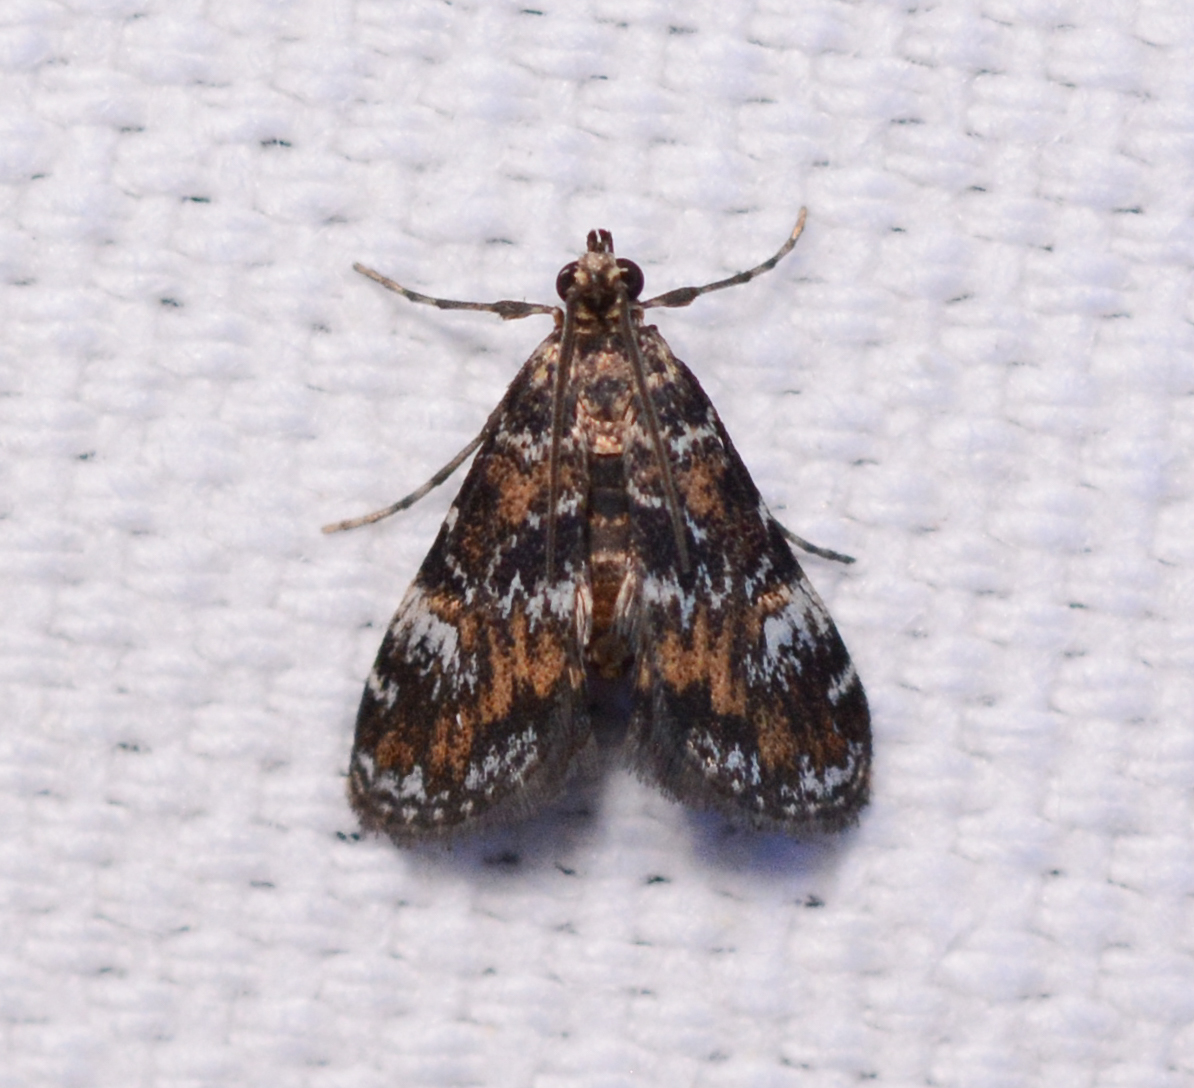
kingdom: Animalia
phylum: Arthropoda
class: Insecta
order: Lepidoptera
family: Crambidae
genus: Elophila
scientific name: Elophila obliteralis
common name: Waterlily leafcutter moth
